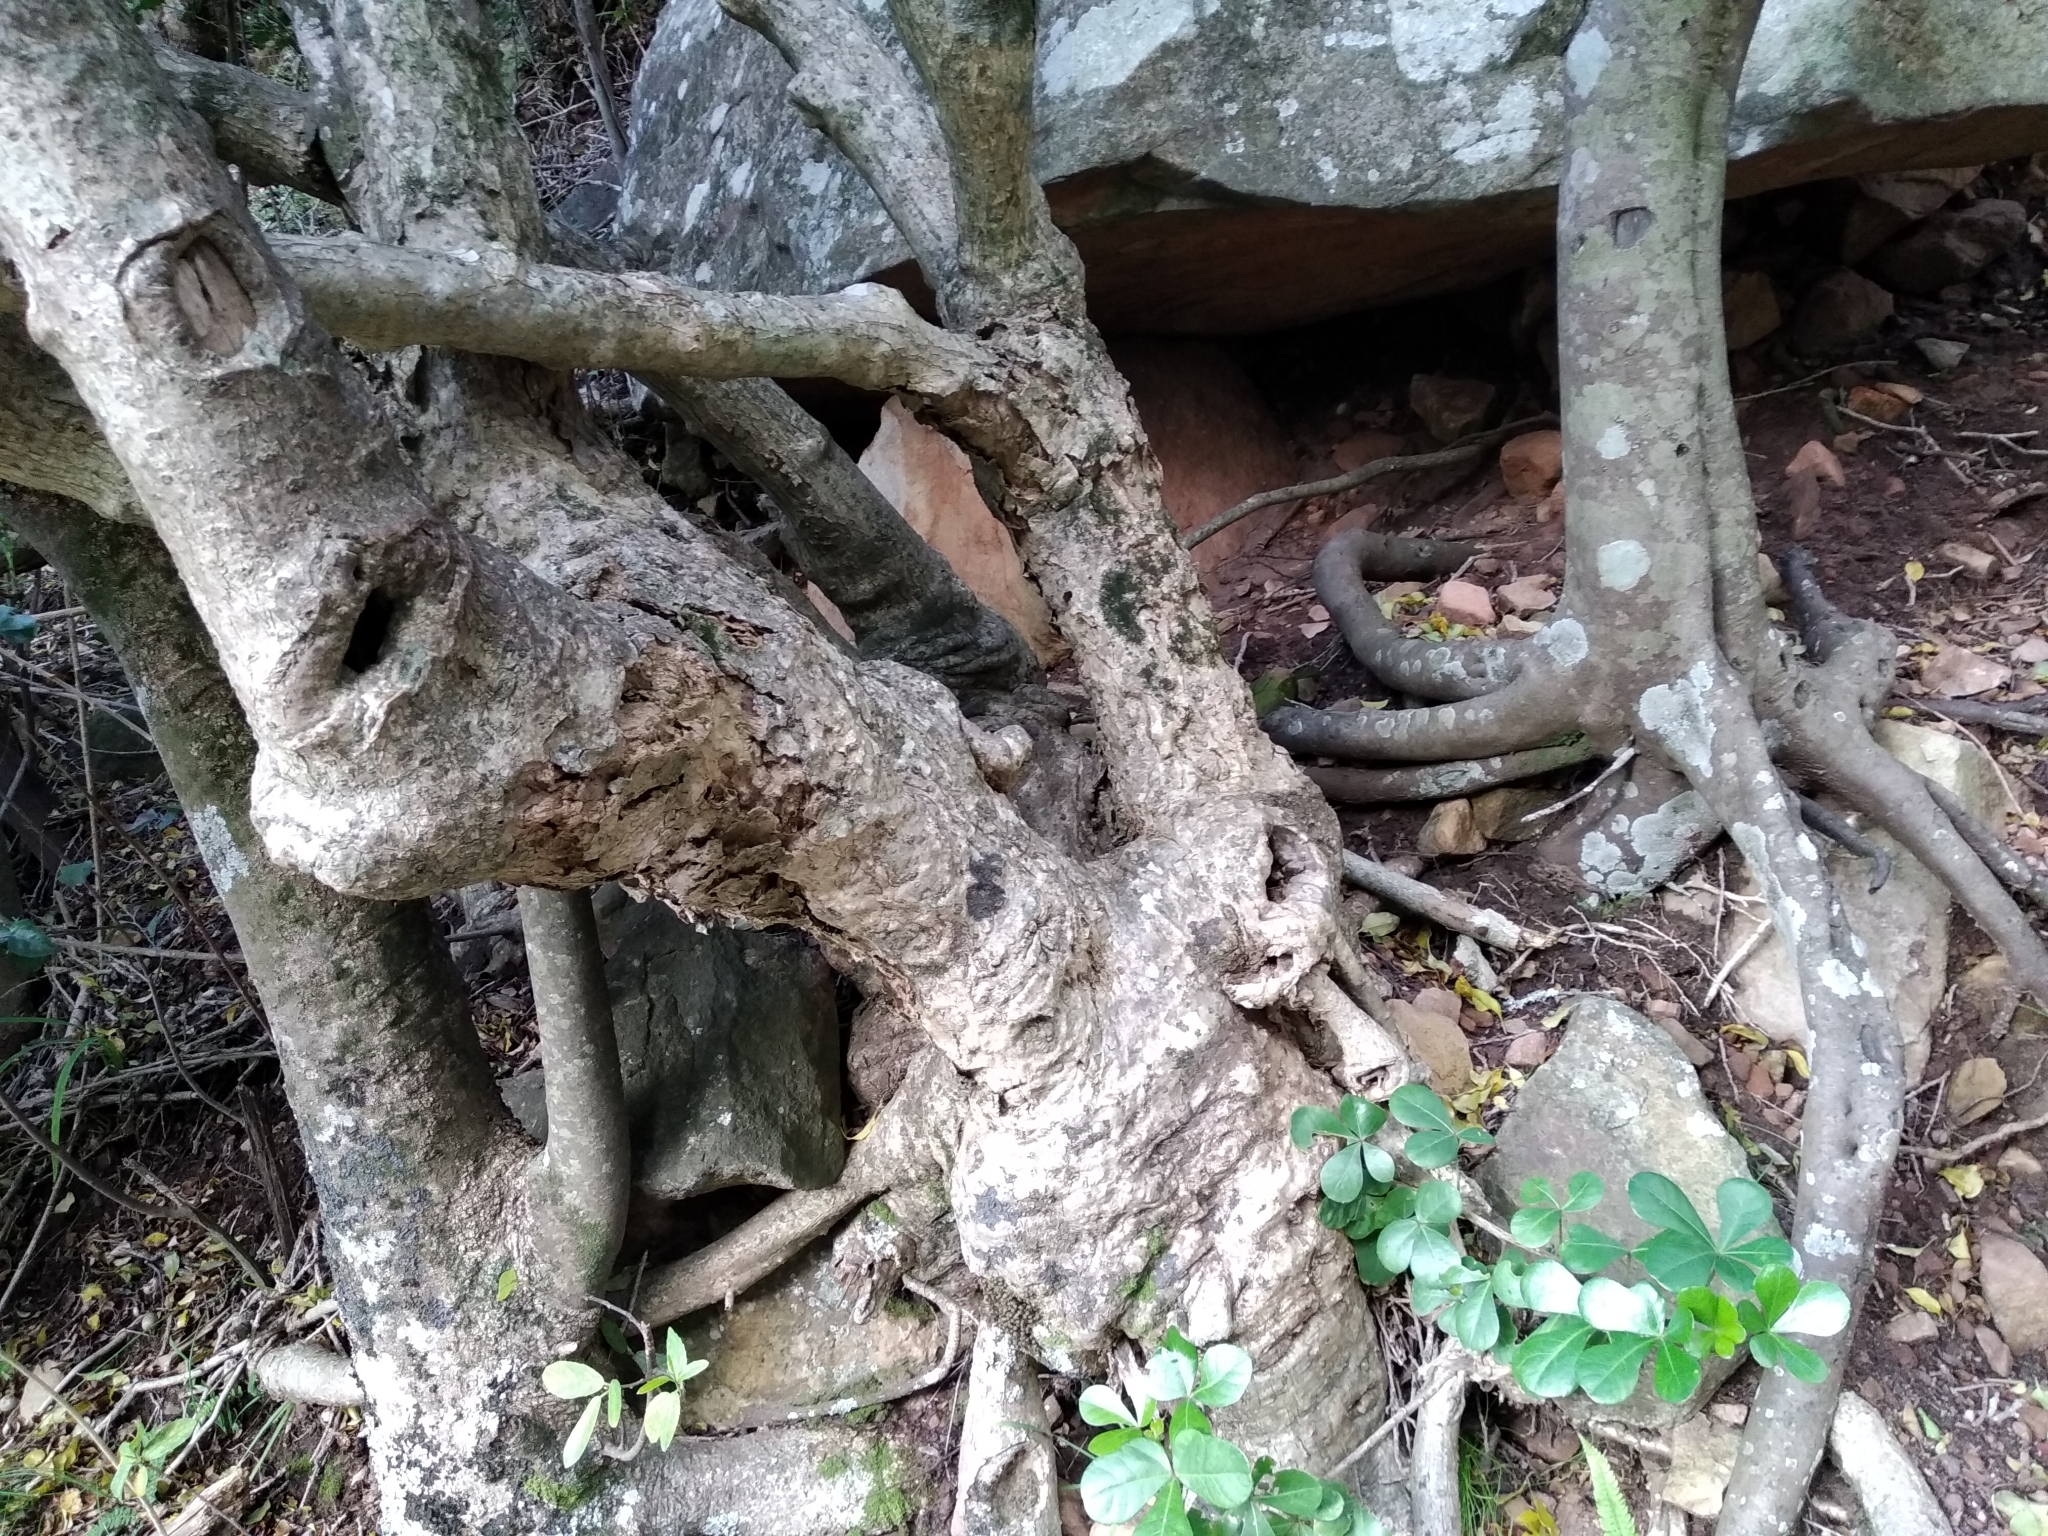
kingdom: Plantae
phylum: Tracheophyta
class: Magnoliopsida
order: Apiales
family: Araliaceae
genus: Cussonia
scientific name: Cussonia thyrsiflora
